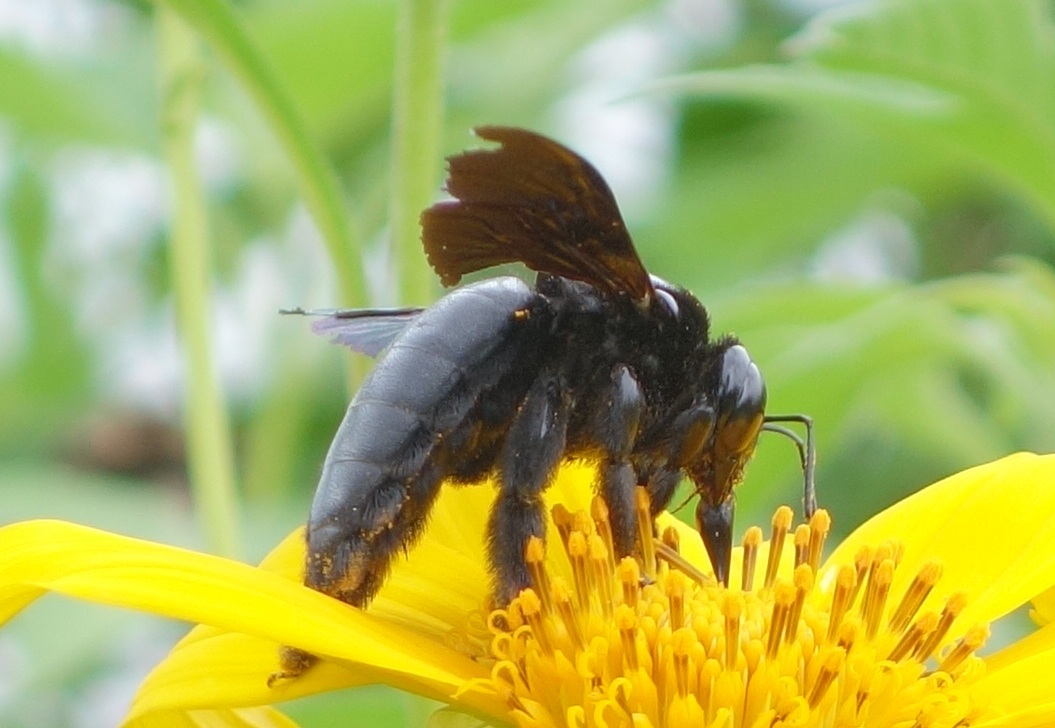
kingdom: Animalia
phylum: Arthropoda
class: Insecta
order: Hymenoptera
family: Apidae
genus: Xylocopa
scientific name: Xylocopa latipes
